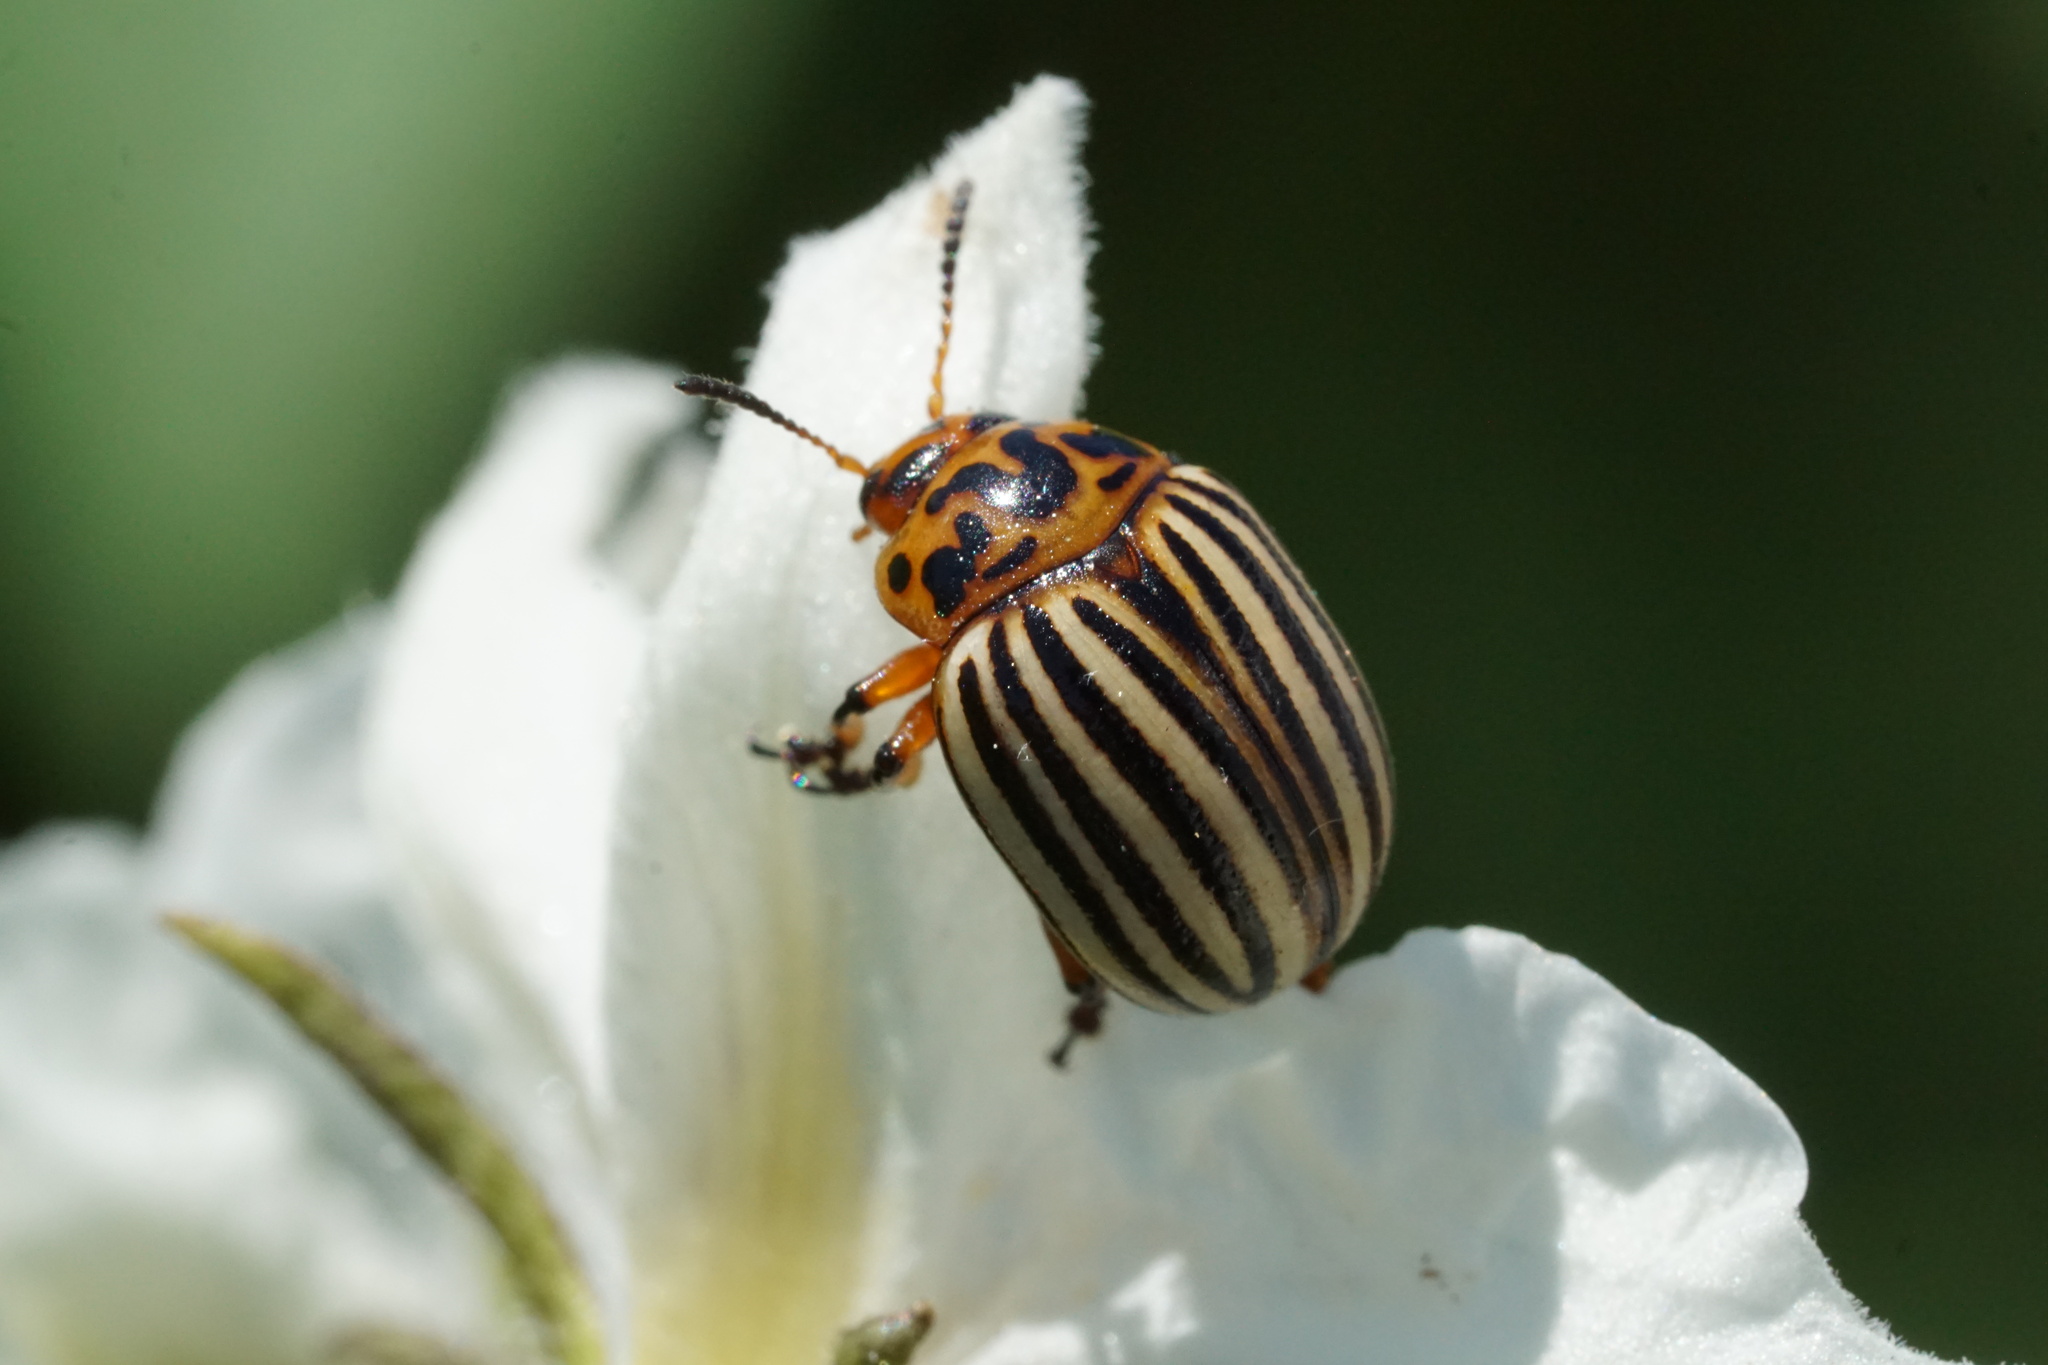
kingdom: Animalia
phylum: Arthropoda
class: Insecta
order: Coleoptera
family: Chrysomelidae
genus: Leptinotarsa
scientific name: Leptinotarsa decemlineata
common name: Colorado potato beetle
